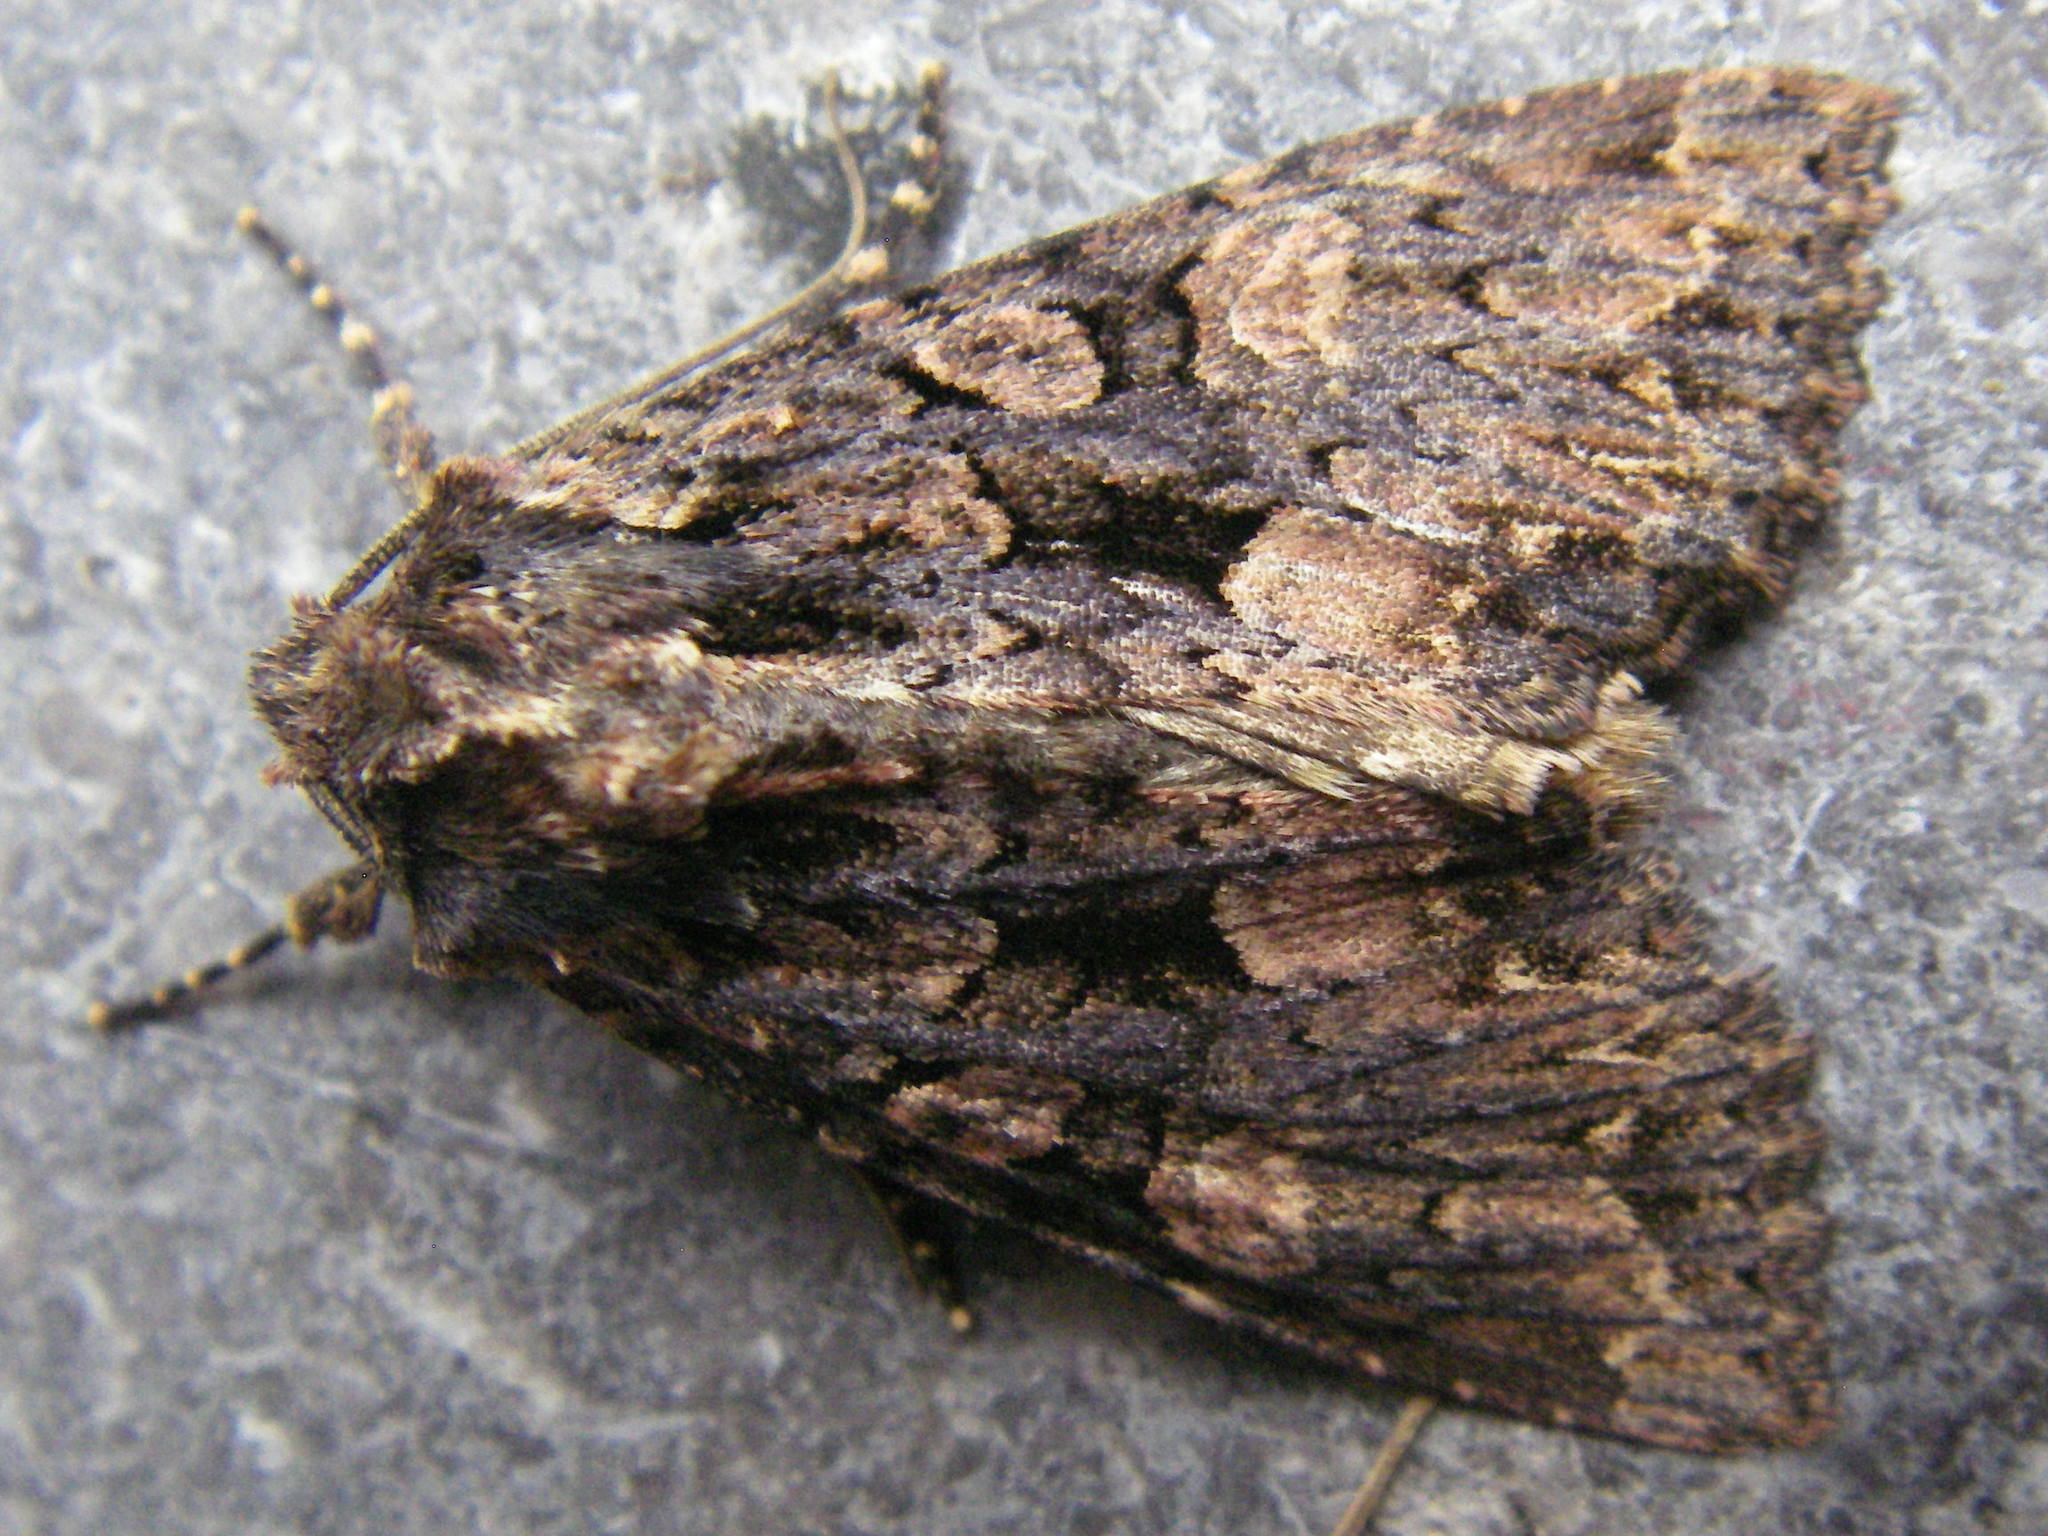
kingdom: Animalia
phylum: Arthropoda
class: Insecta
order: Lepidoptera
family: Noctuidae
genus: Mniotype
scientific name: Mniotype satura
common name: Beautiful arches
